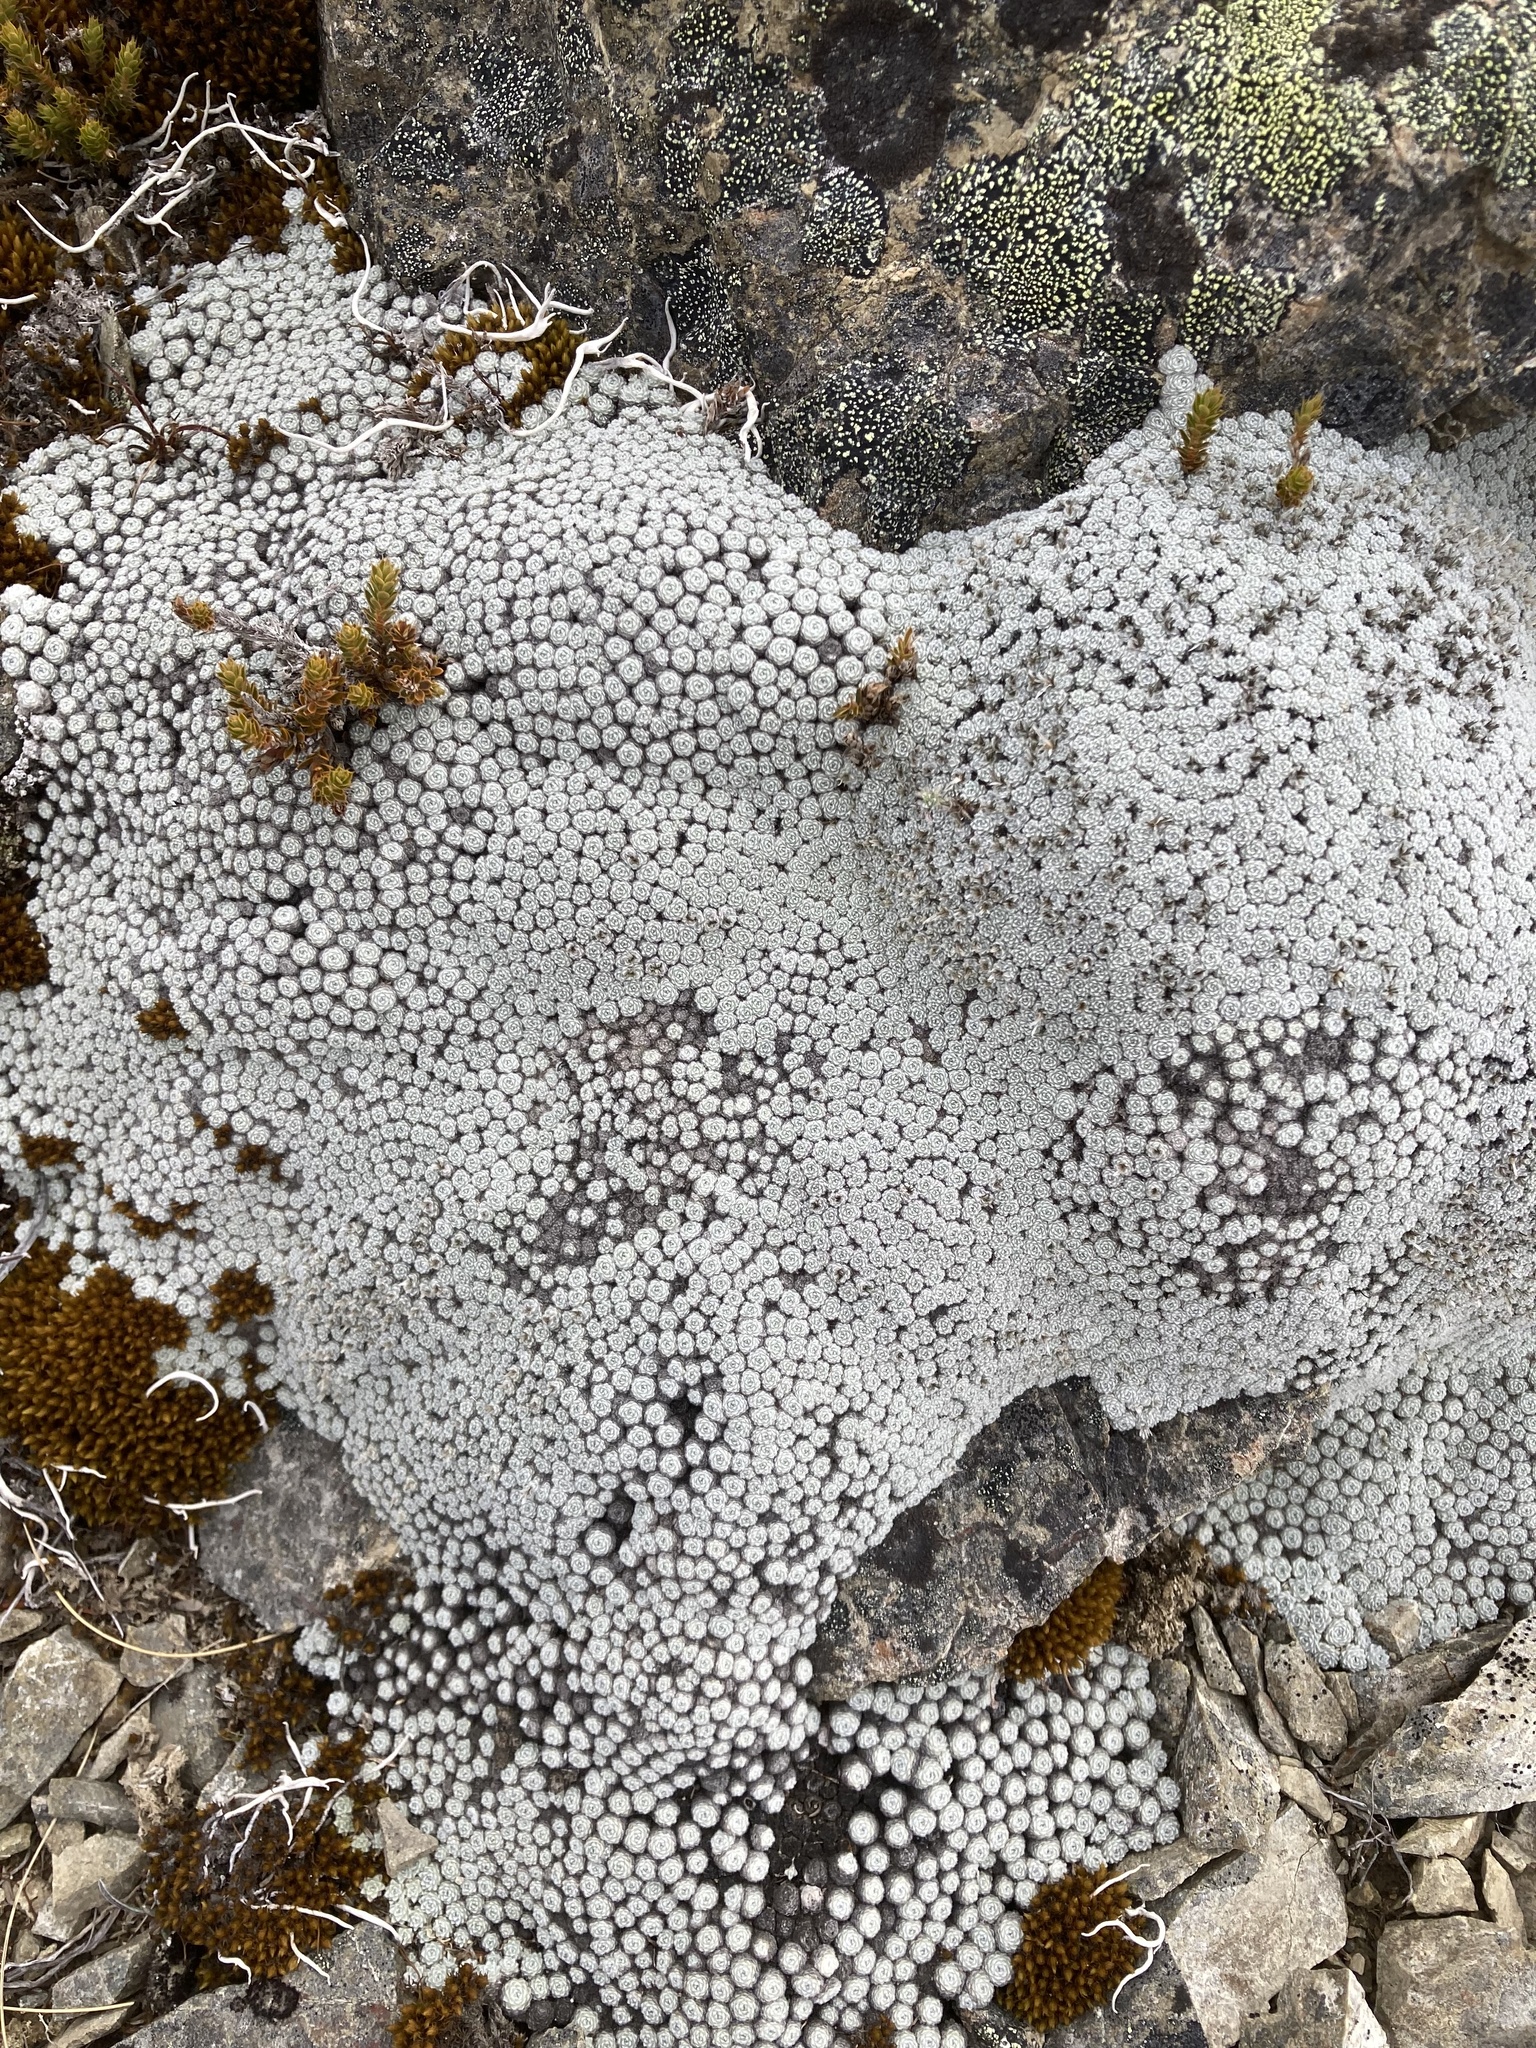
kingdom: Plantae
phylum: Tracheophyta
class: Magnoliopsida
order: Asterales
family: Asteraceae
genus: Raoulia
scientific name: Raoulia bryoides
